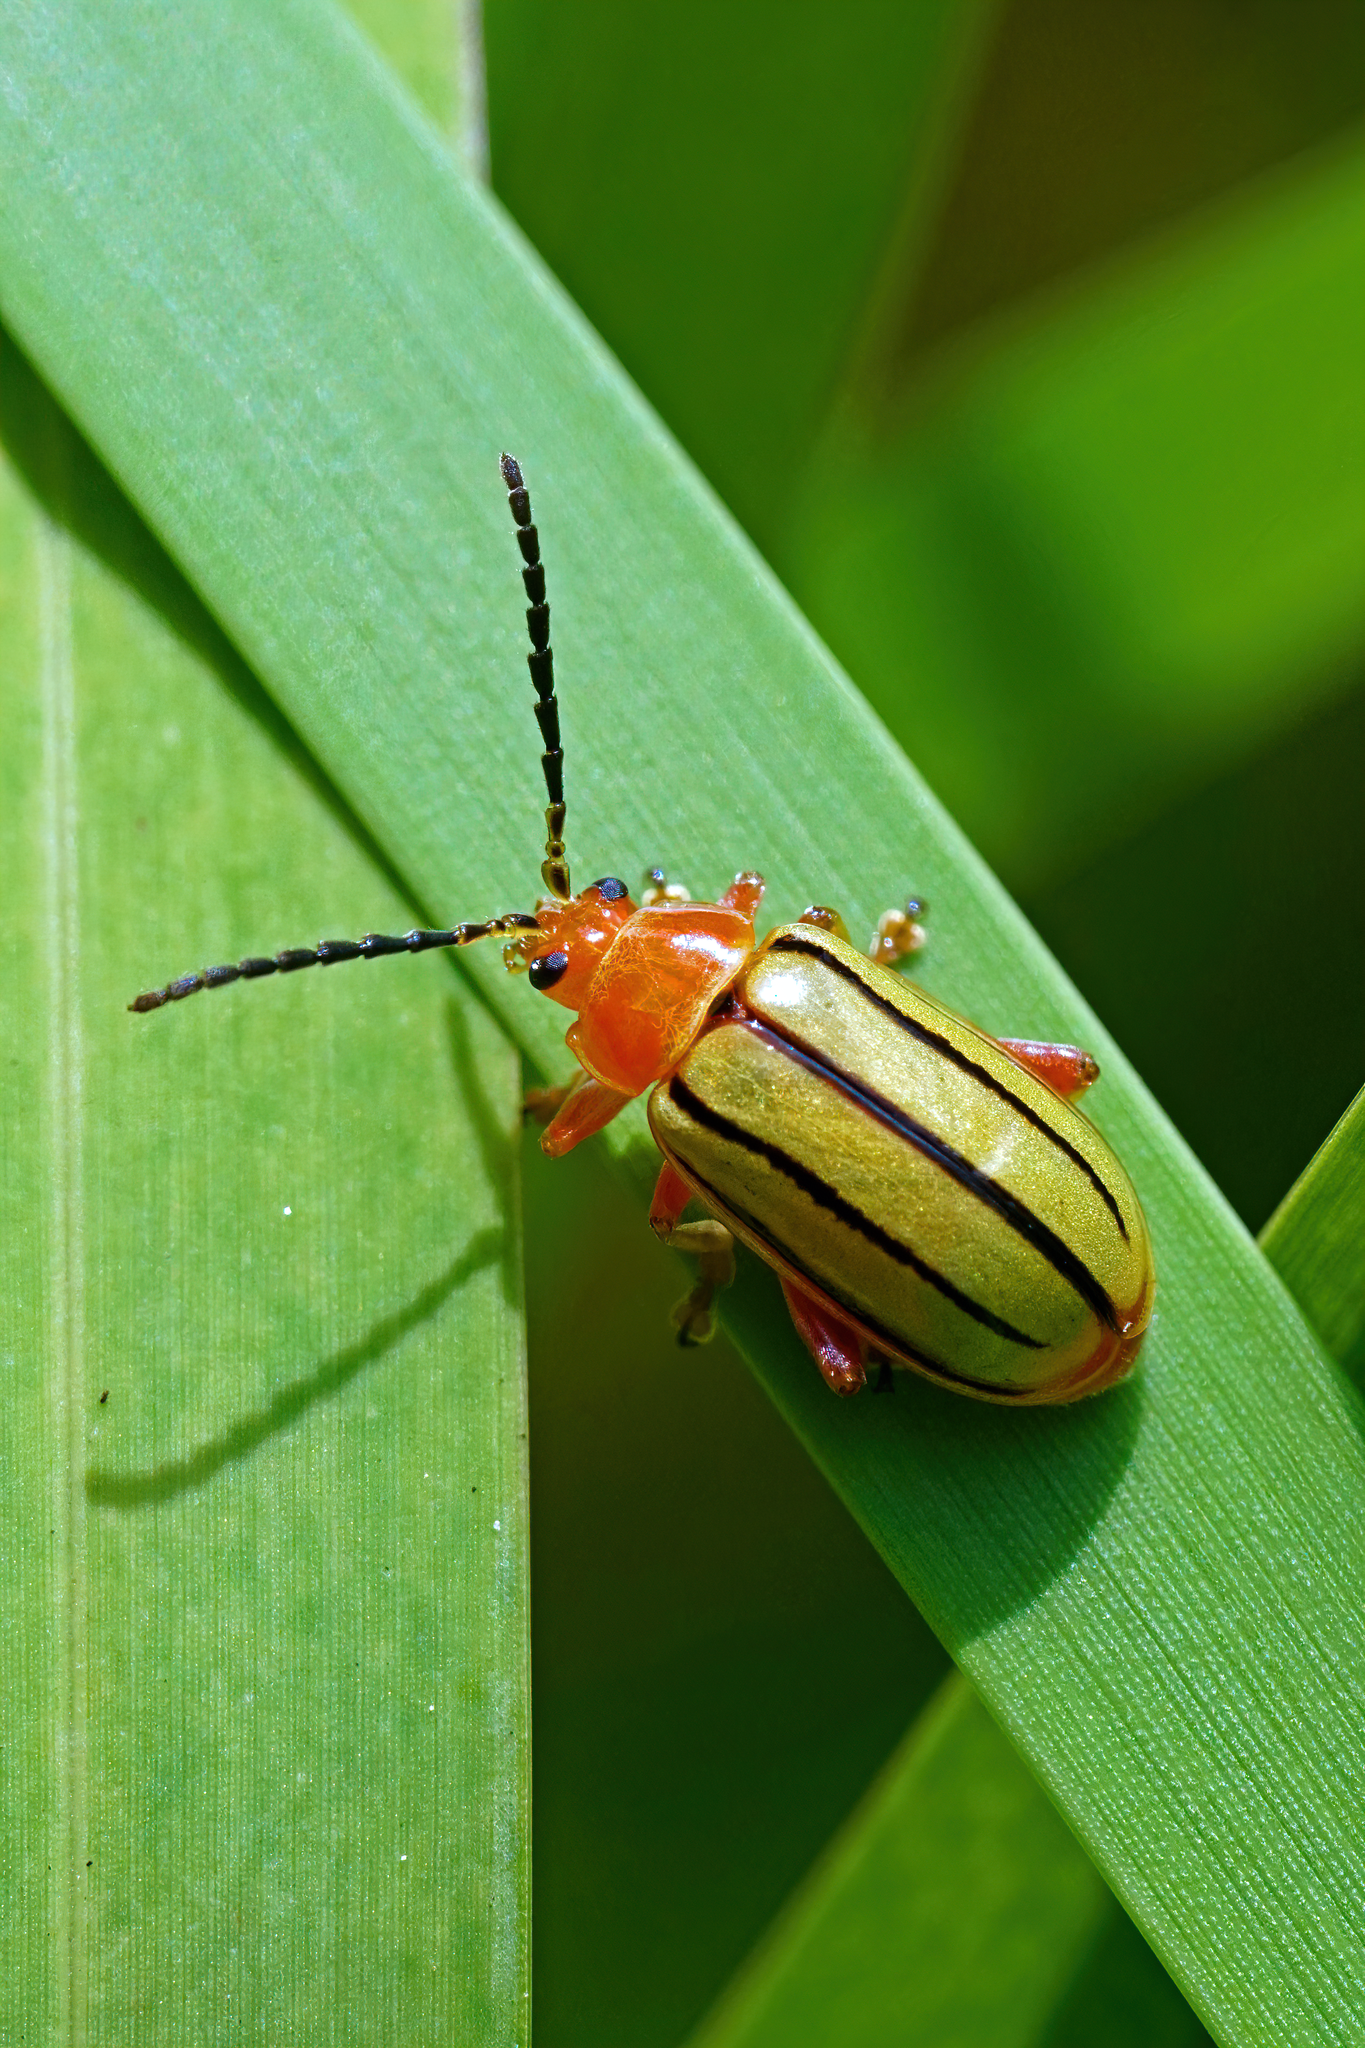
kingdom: Animalia
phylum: Arthropoda
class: Insecta
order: Coleoptera
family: Chrysomelidae
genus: Disonycha
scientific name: Disonycha
